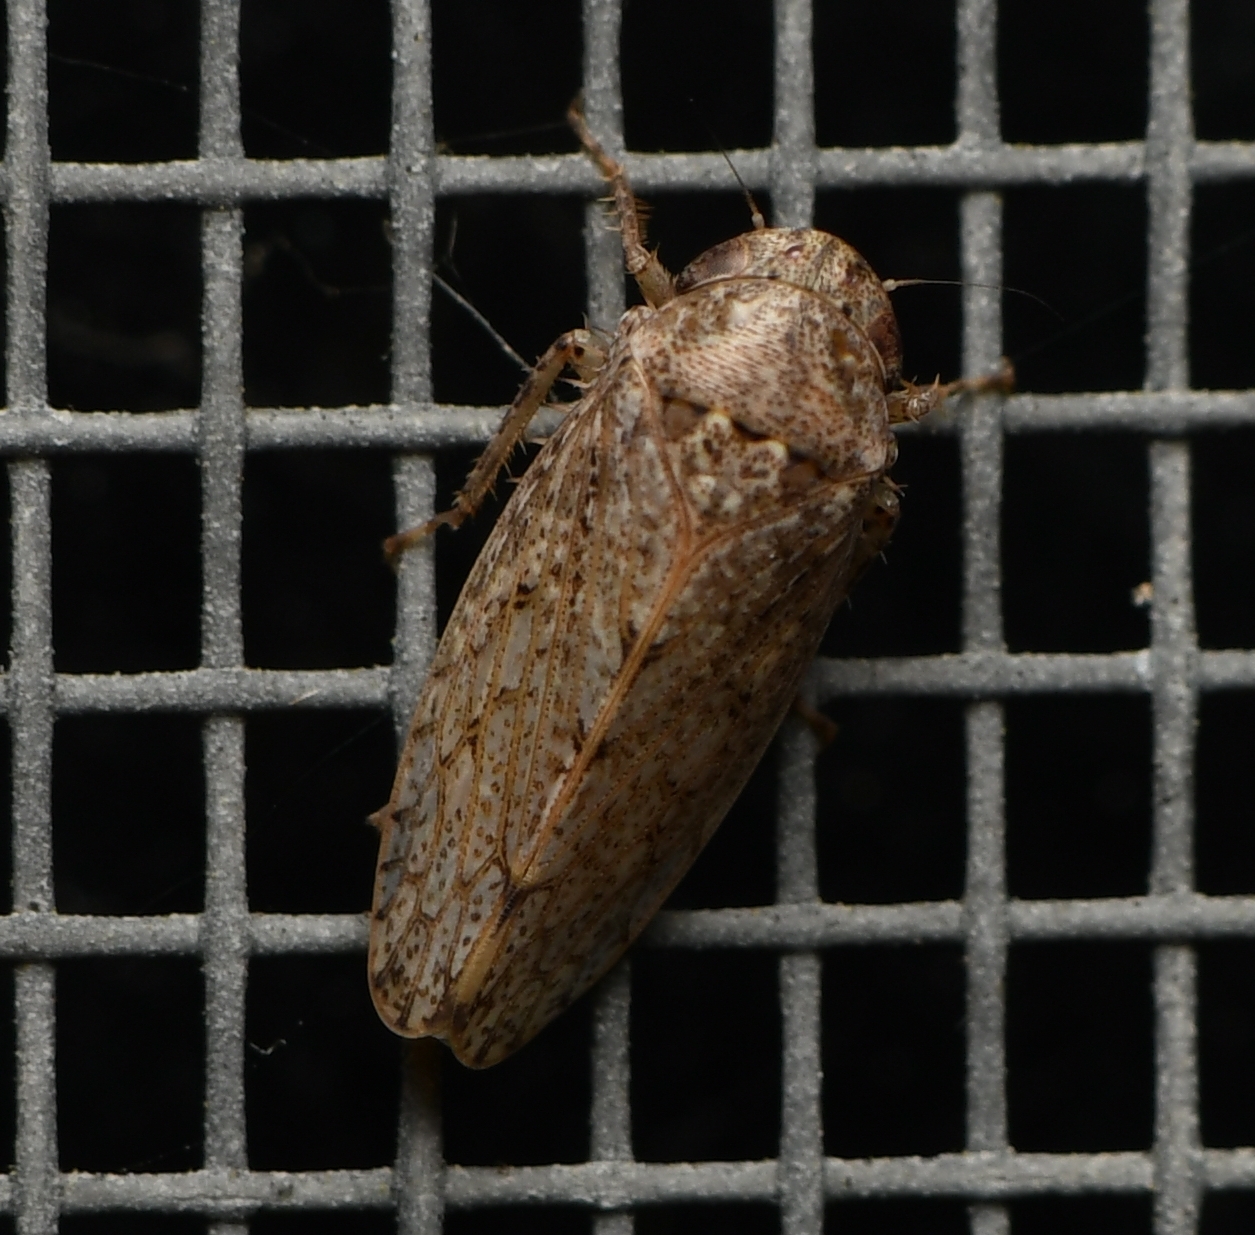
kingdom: Animalia
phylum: Arthropoda
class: Insecta
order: Hemiptera
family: Cicadellidae
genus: Curtara
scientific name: Curtara insularis
